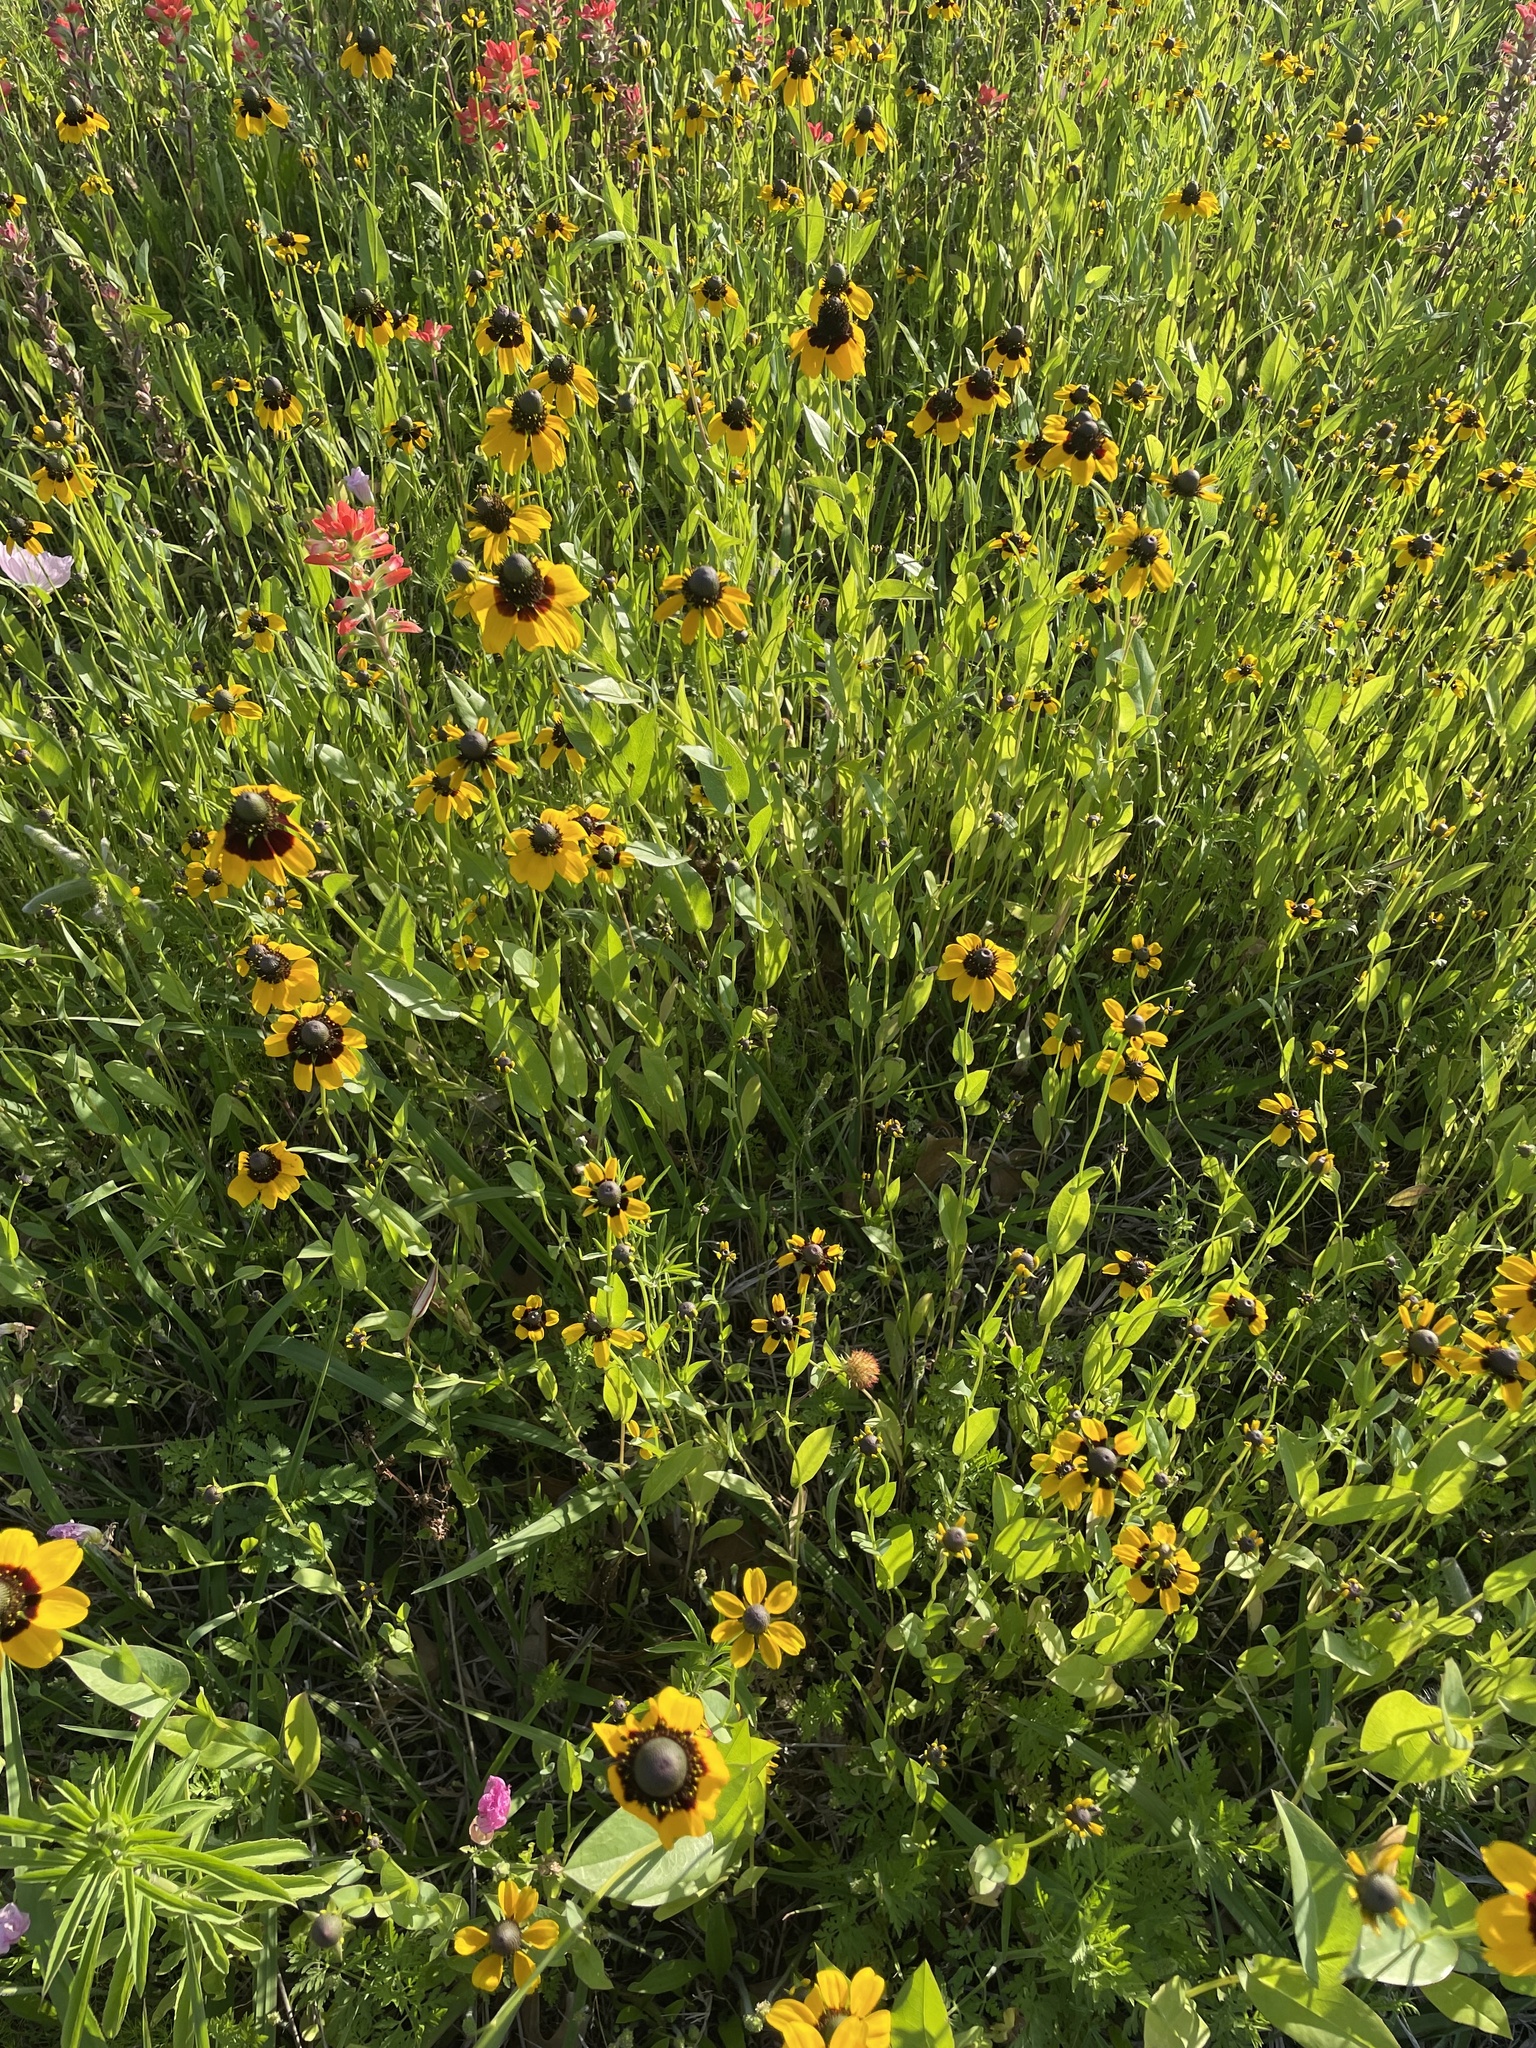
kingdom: Plantae
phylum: Tracheophyta
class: Magnoliopsida
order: Asterales
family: Asteraceae
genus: Rudbeckia
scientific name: Rudbeckia amplexicaulis
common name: Clasping-leaf coneflower
